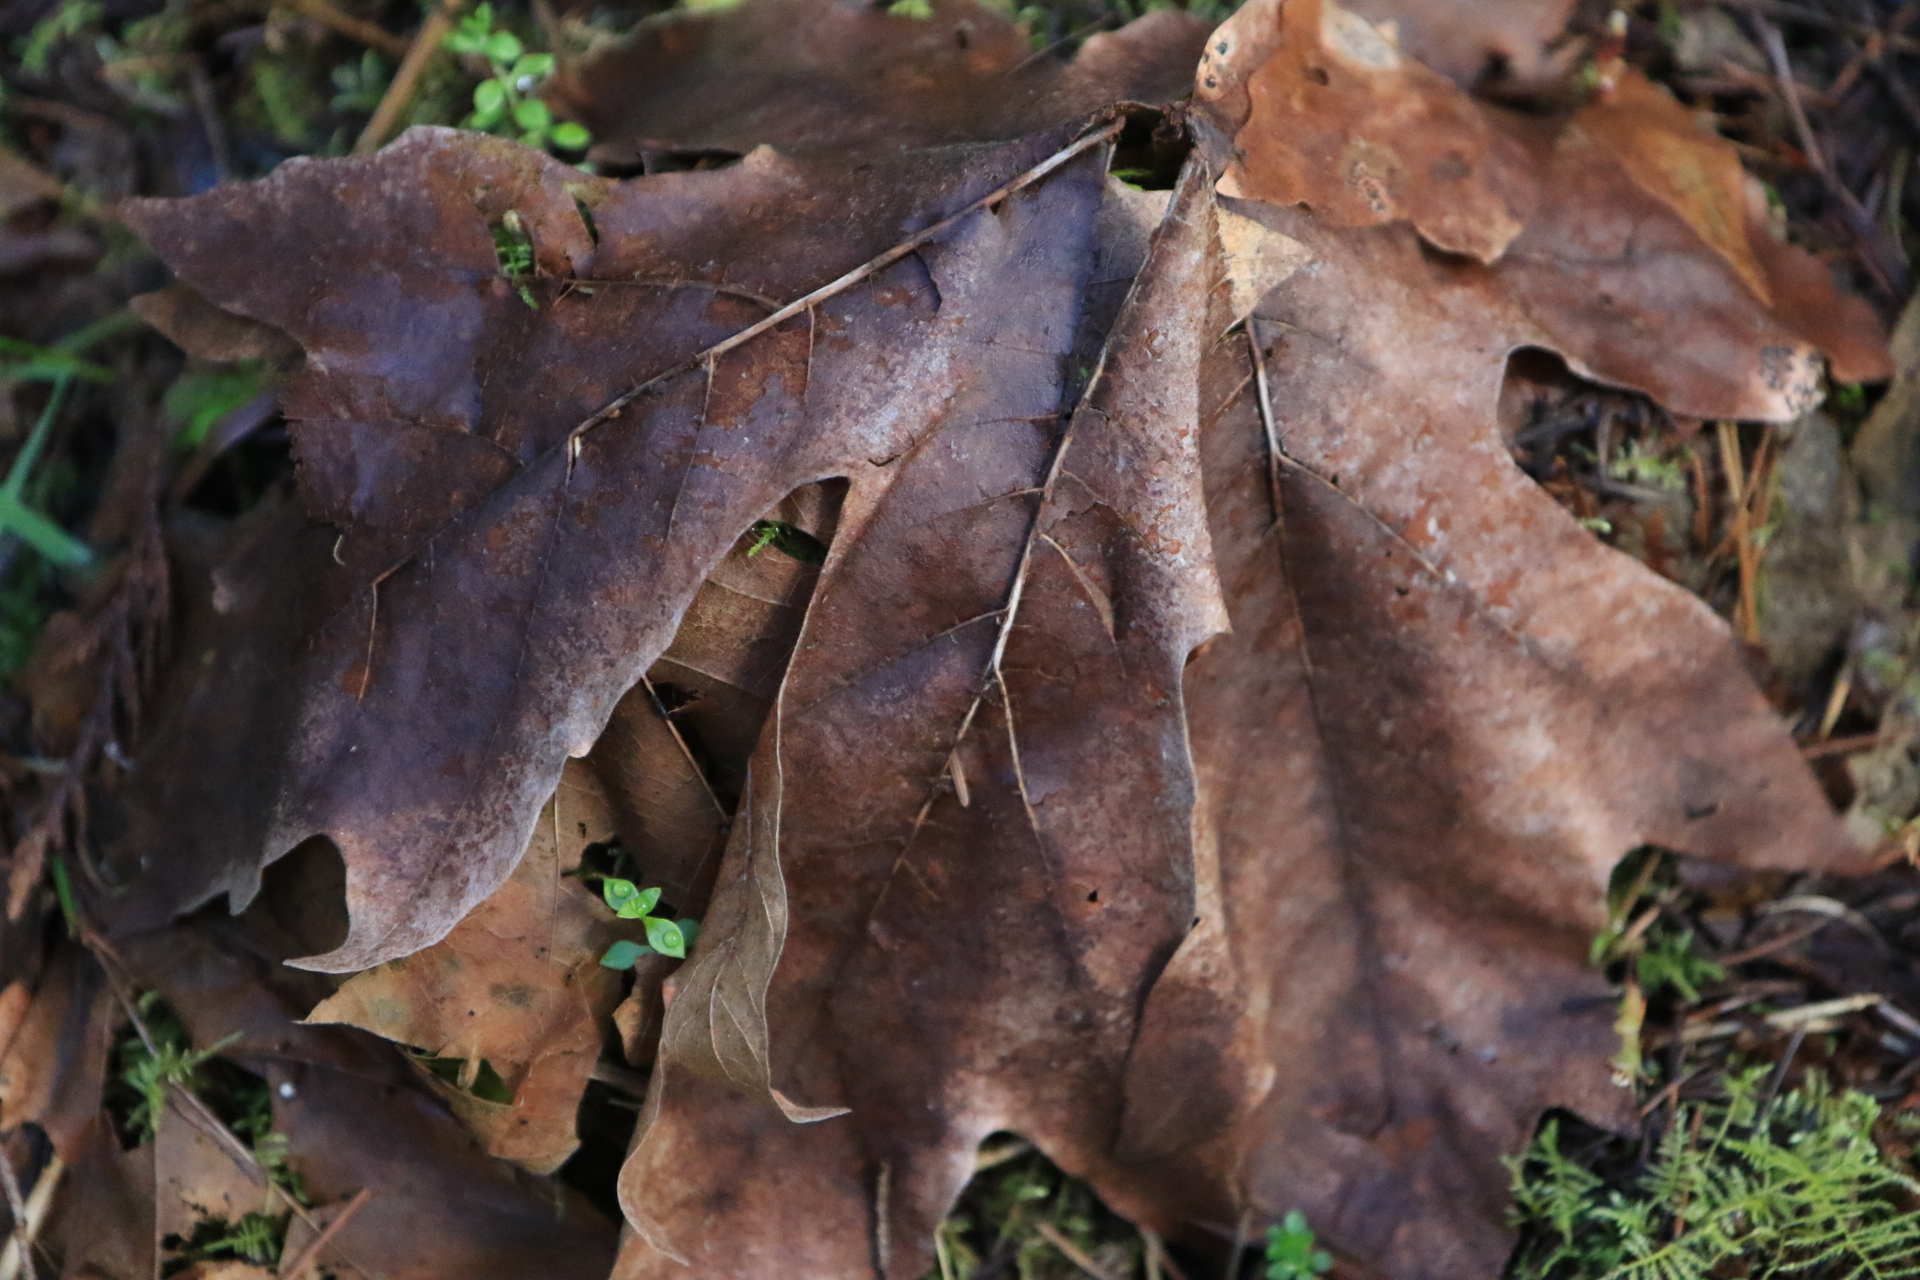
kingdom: Plantae
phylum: Tracheophyta
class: Magnoliopsida
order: Sapindales
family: Sapindaceae
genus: Acer
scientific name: Acer macrophyllum
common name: Oregon maple
